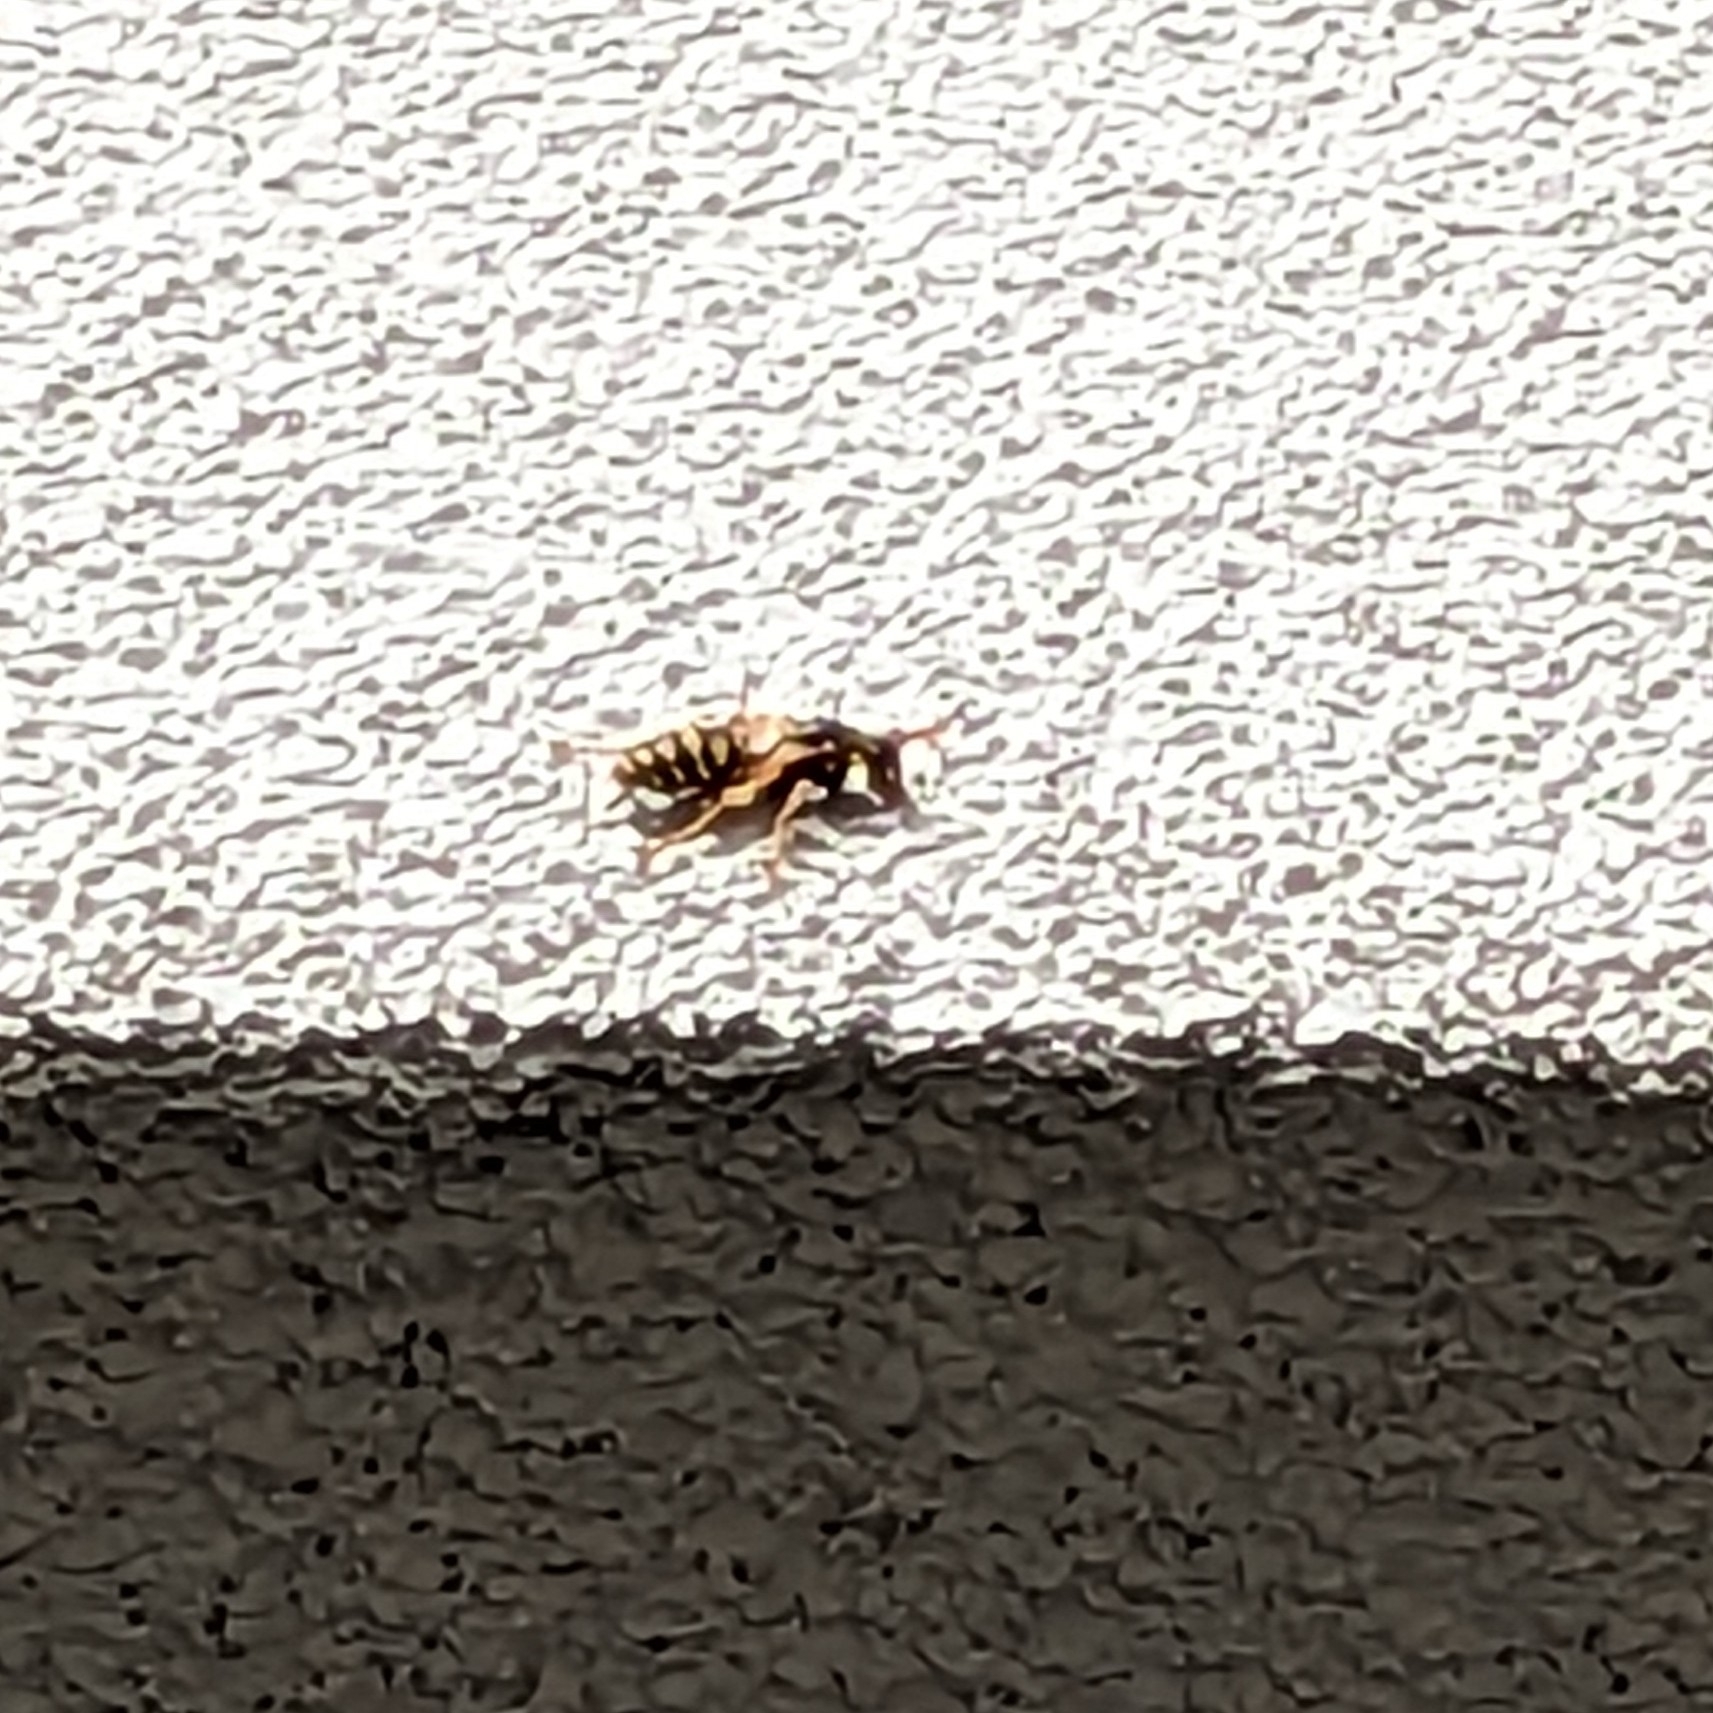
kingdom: Animalia
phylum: Arthropoda
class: Insecta
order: Hymenoptera
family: Eumenidae
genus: Polistes
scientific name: Polistes dominula
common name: Paper wasp
